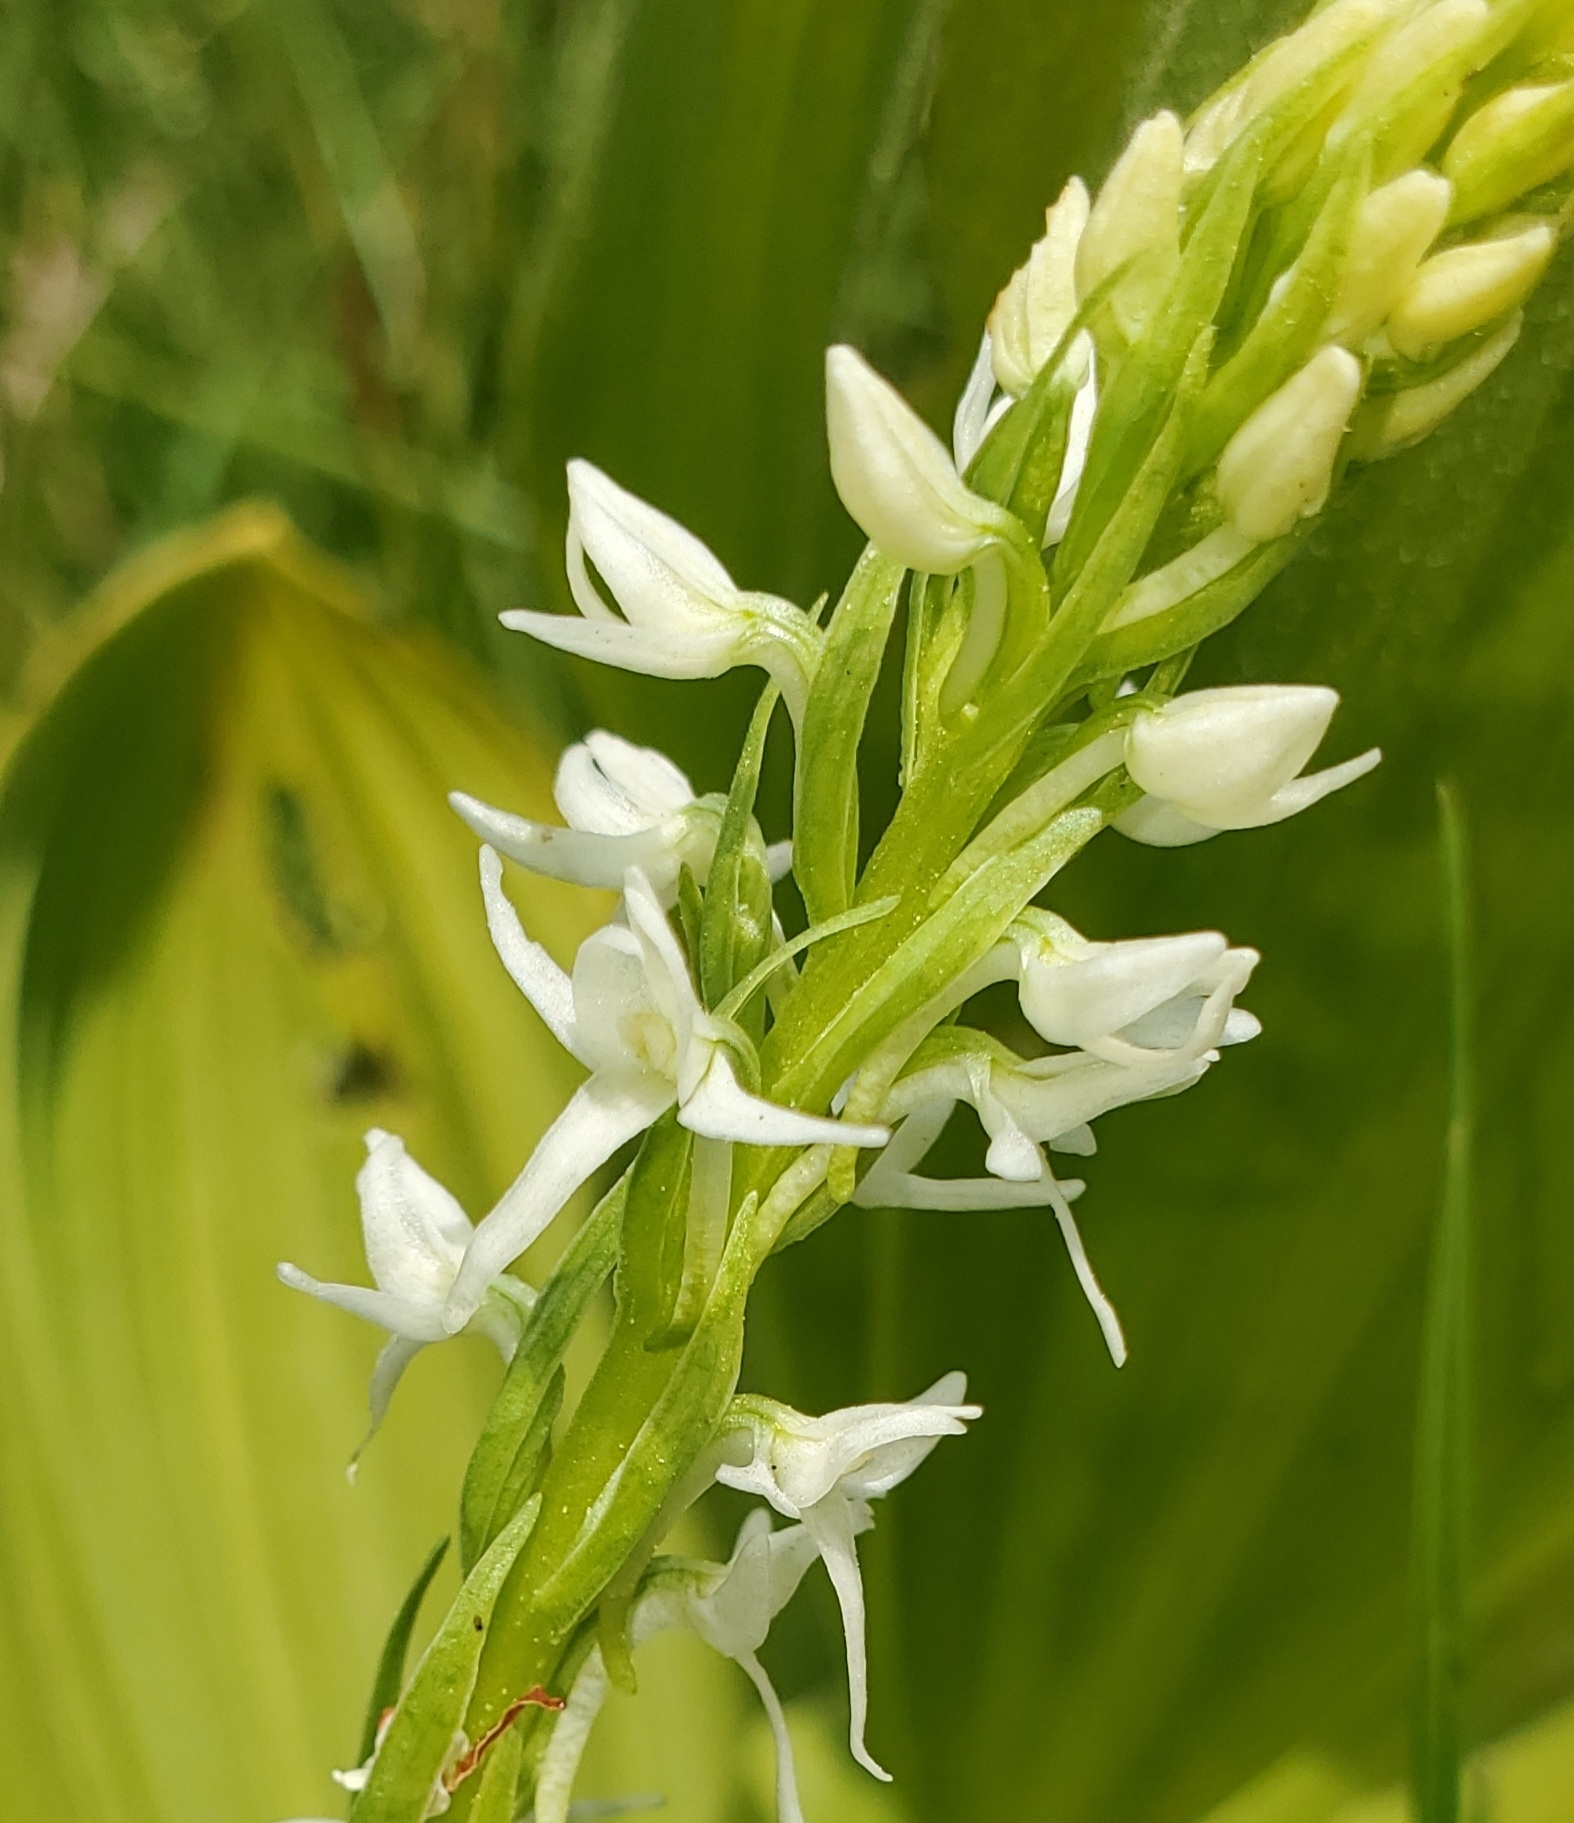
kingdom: Plantae
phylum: Tracheophyta
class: Liliopsida
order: Asparagales
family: Orchidaceae
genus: Platanthera
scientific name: Platanthera dilatata
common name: Bog candles
